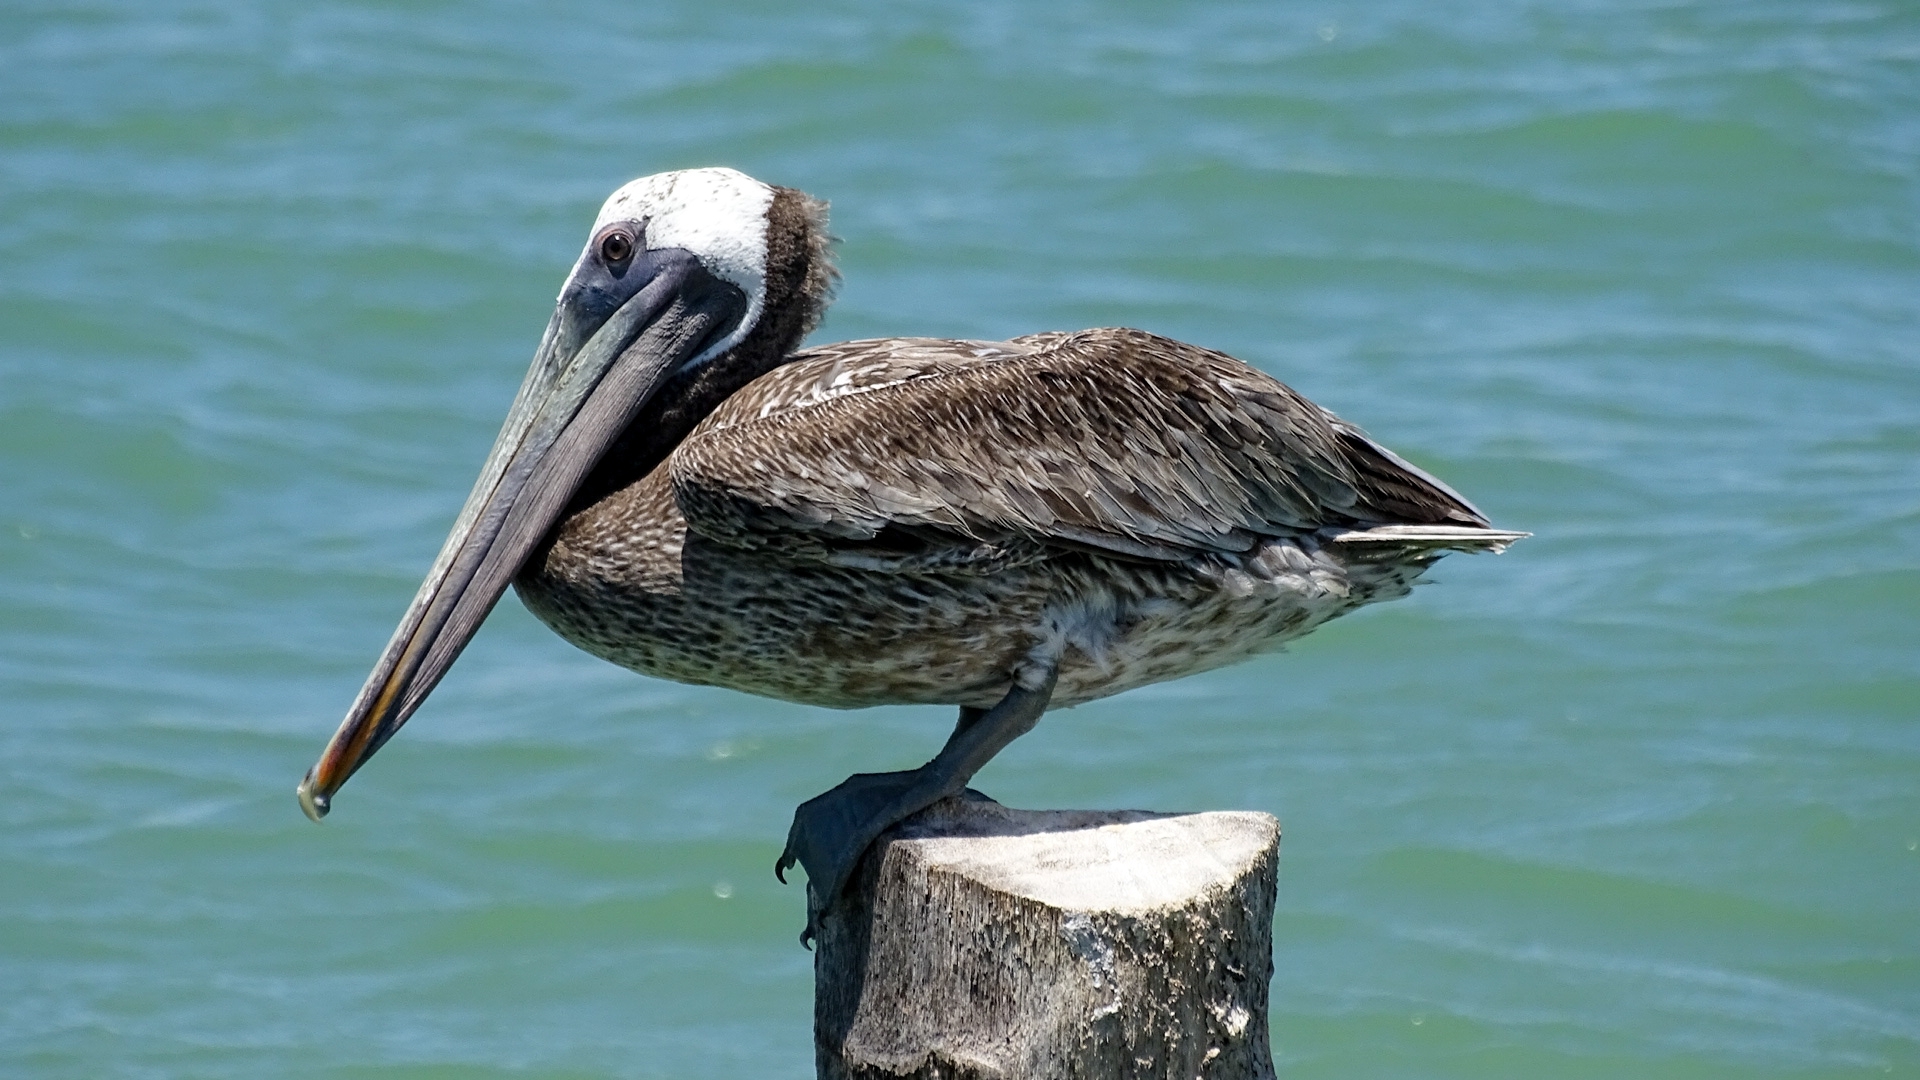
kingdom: Animalia
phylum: Chordata
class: Aves
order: Pelecaniformes
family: Pelecanidae
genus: Pelecanus
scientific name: Pelecanus occidentalis
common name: Brown pelican
